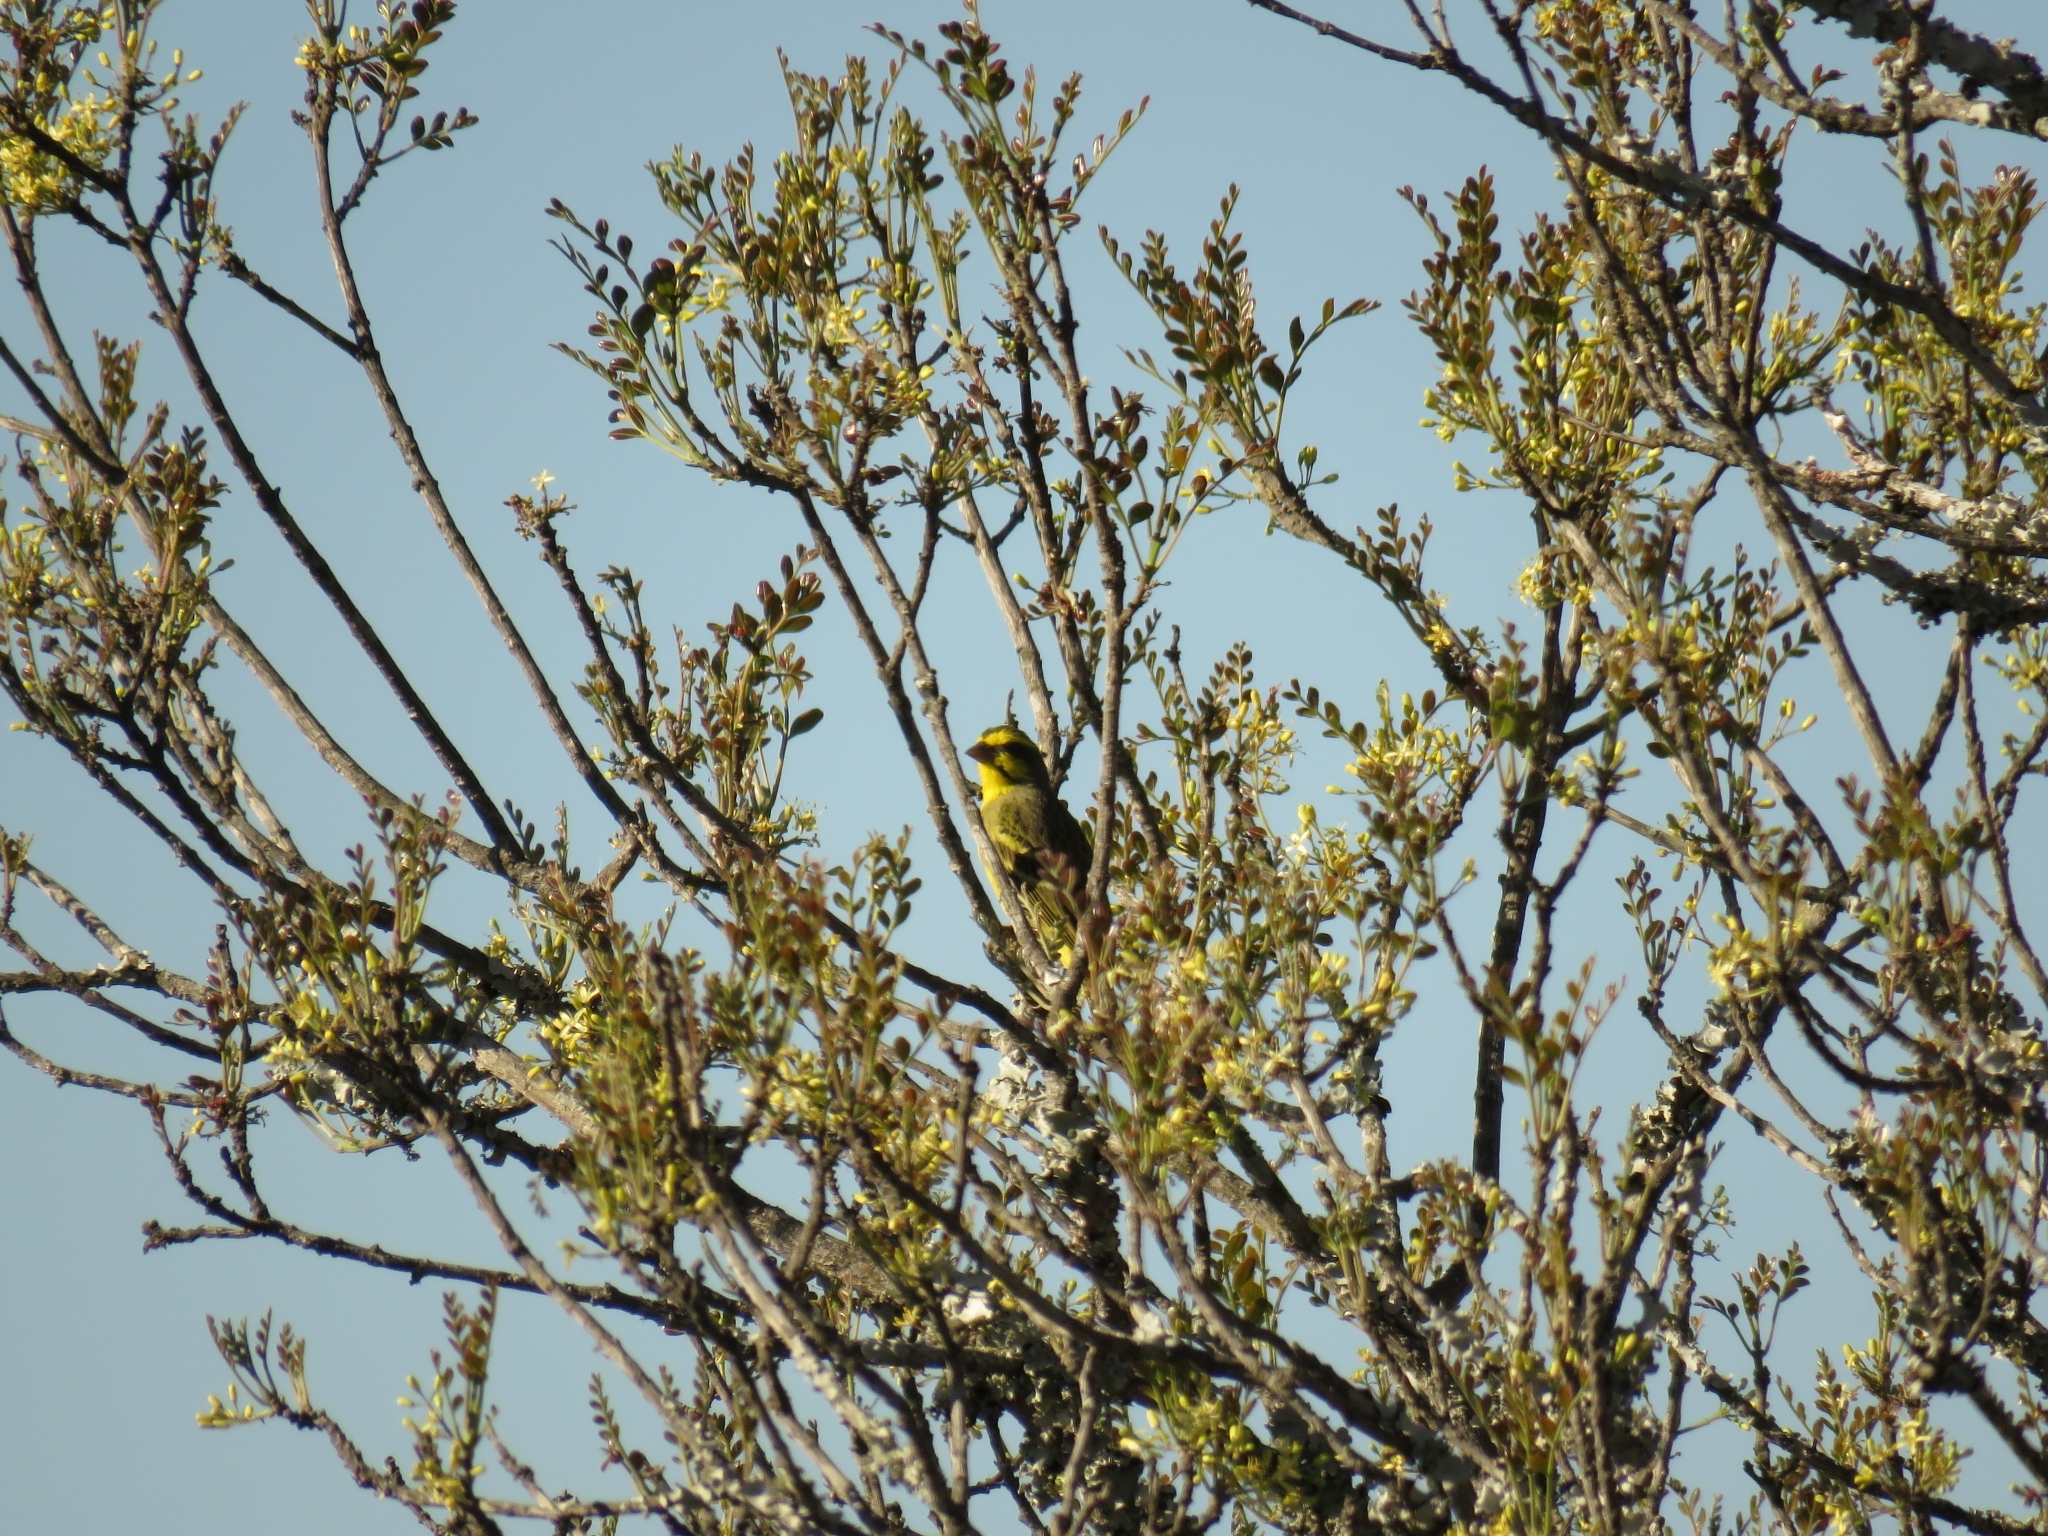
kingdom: Animalia
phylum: Chordata
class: Aves
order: Passeriformes
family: Fringillidae
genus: Crithagra
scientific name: Crithagra mozambica
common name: Yellow-fronted canary
